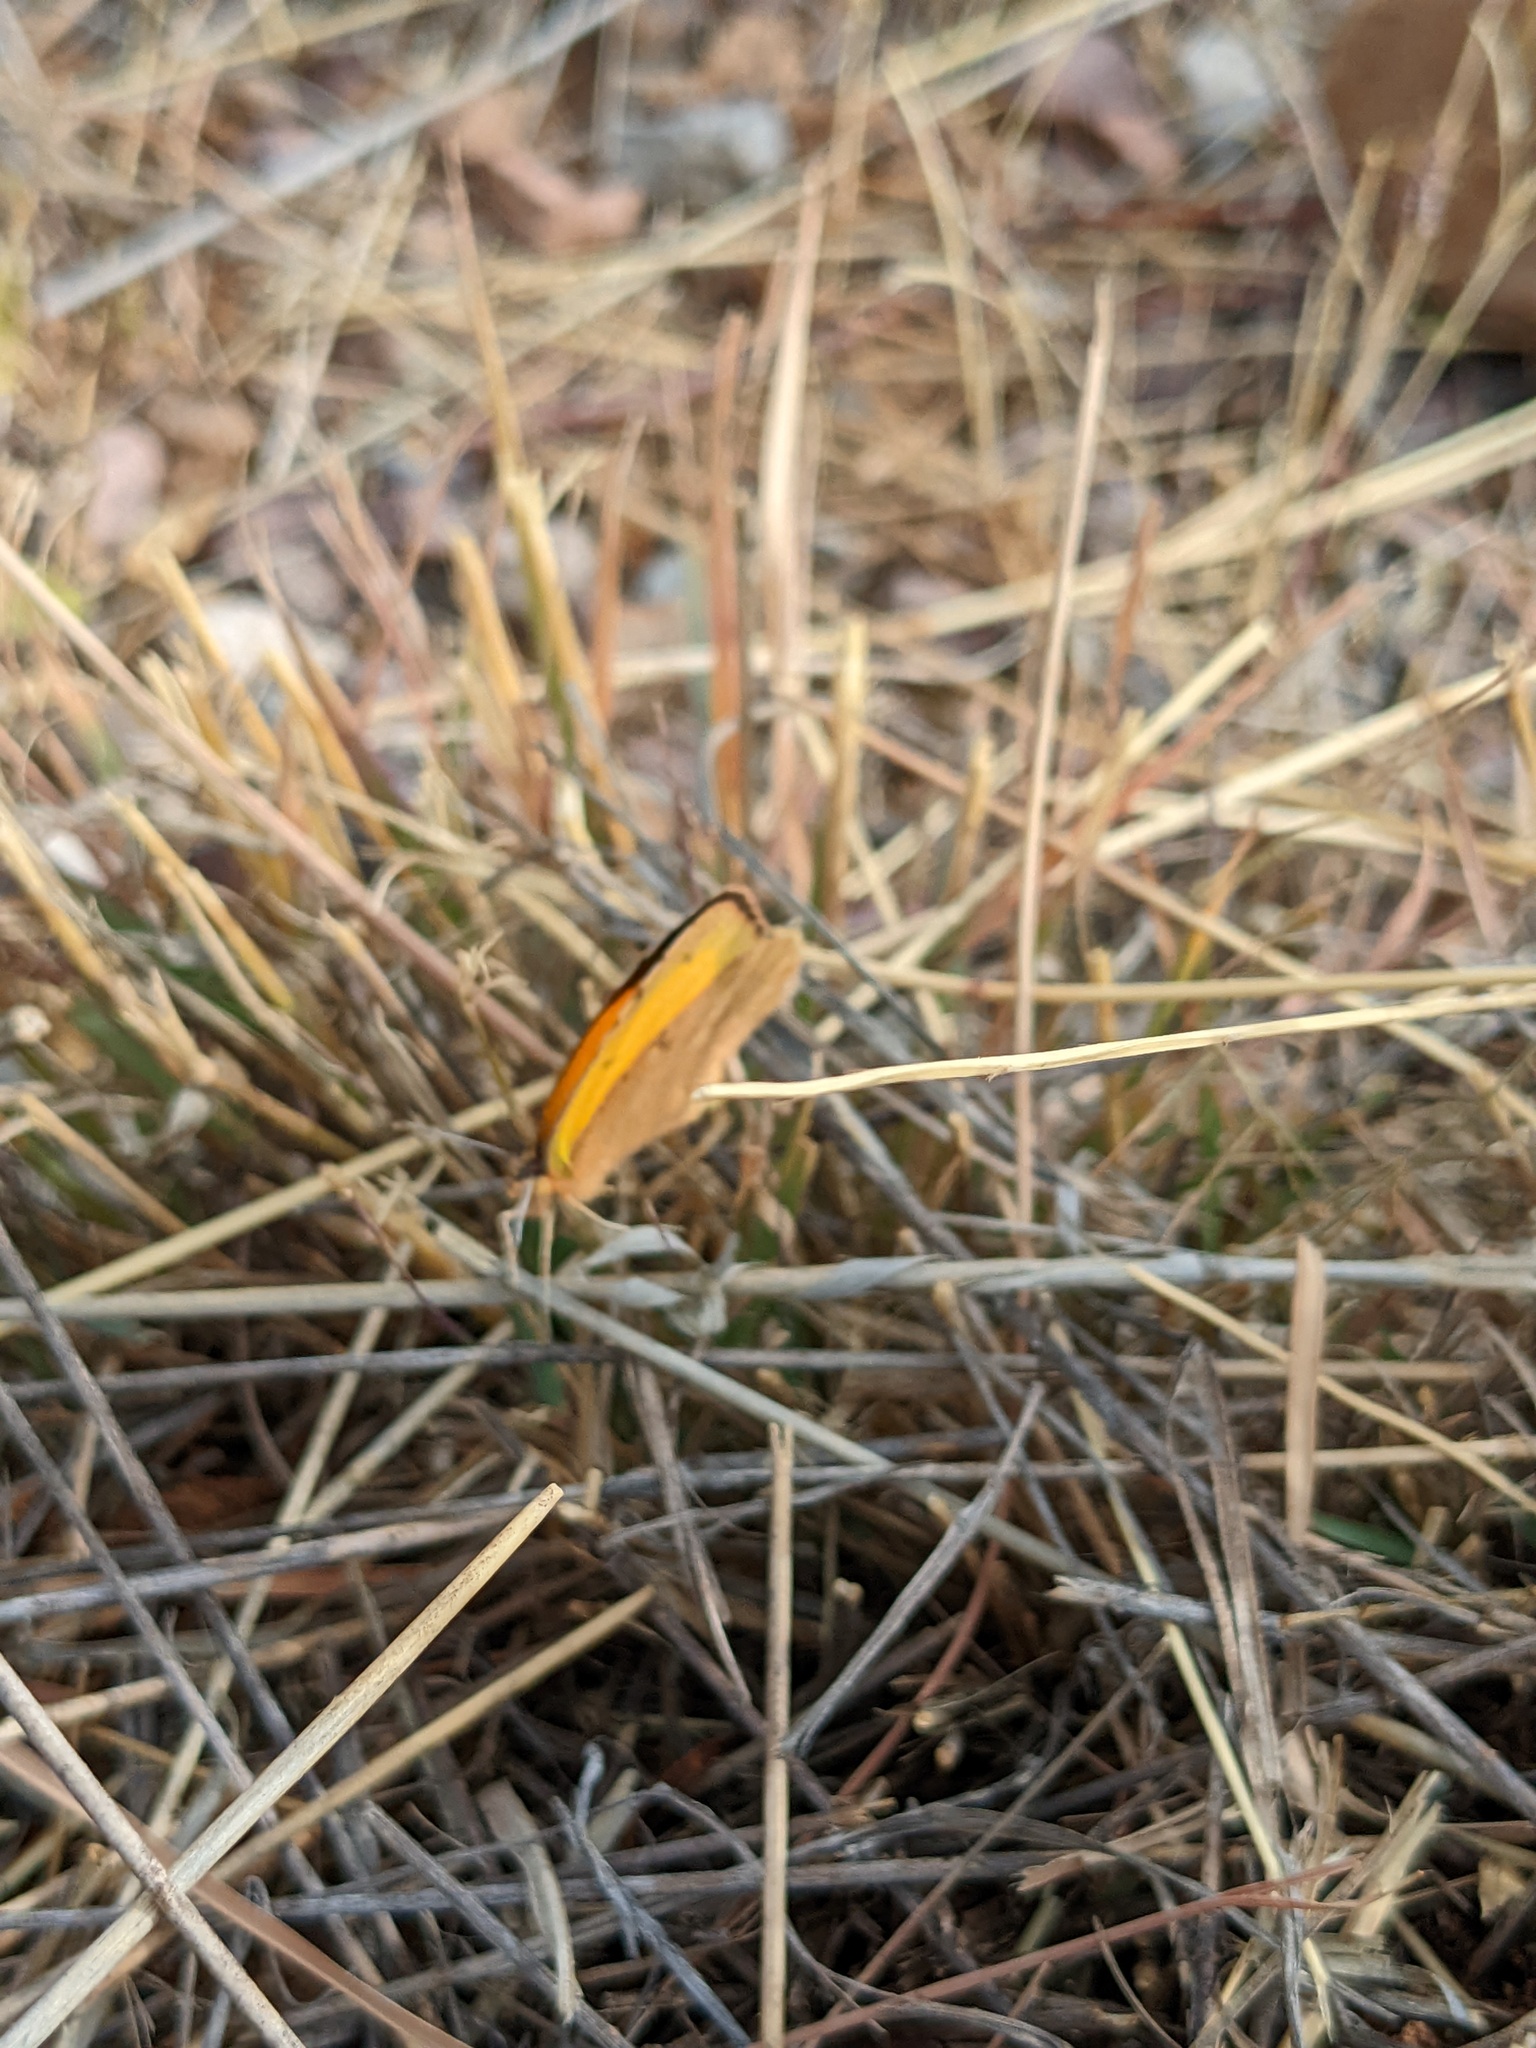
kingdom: Animalia
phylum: Arthropoda
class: Insecta
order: Lepidoptera
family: Pieridae
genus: Abaeis
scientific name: Abaeis nicippe
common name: Sleepy orange
